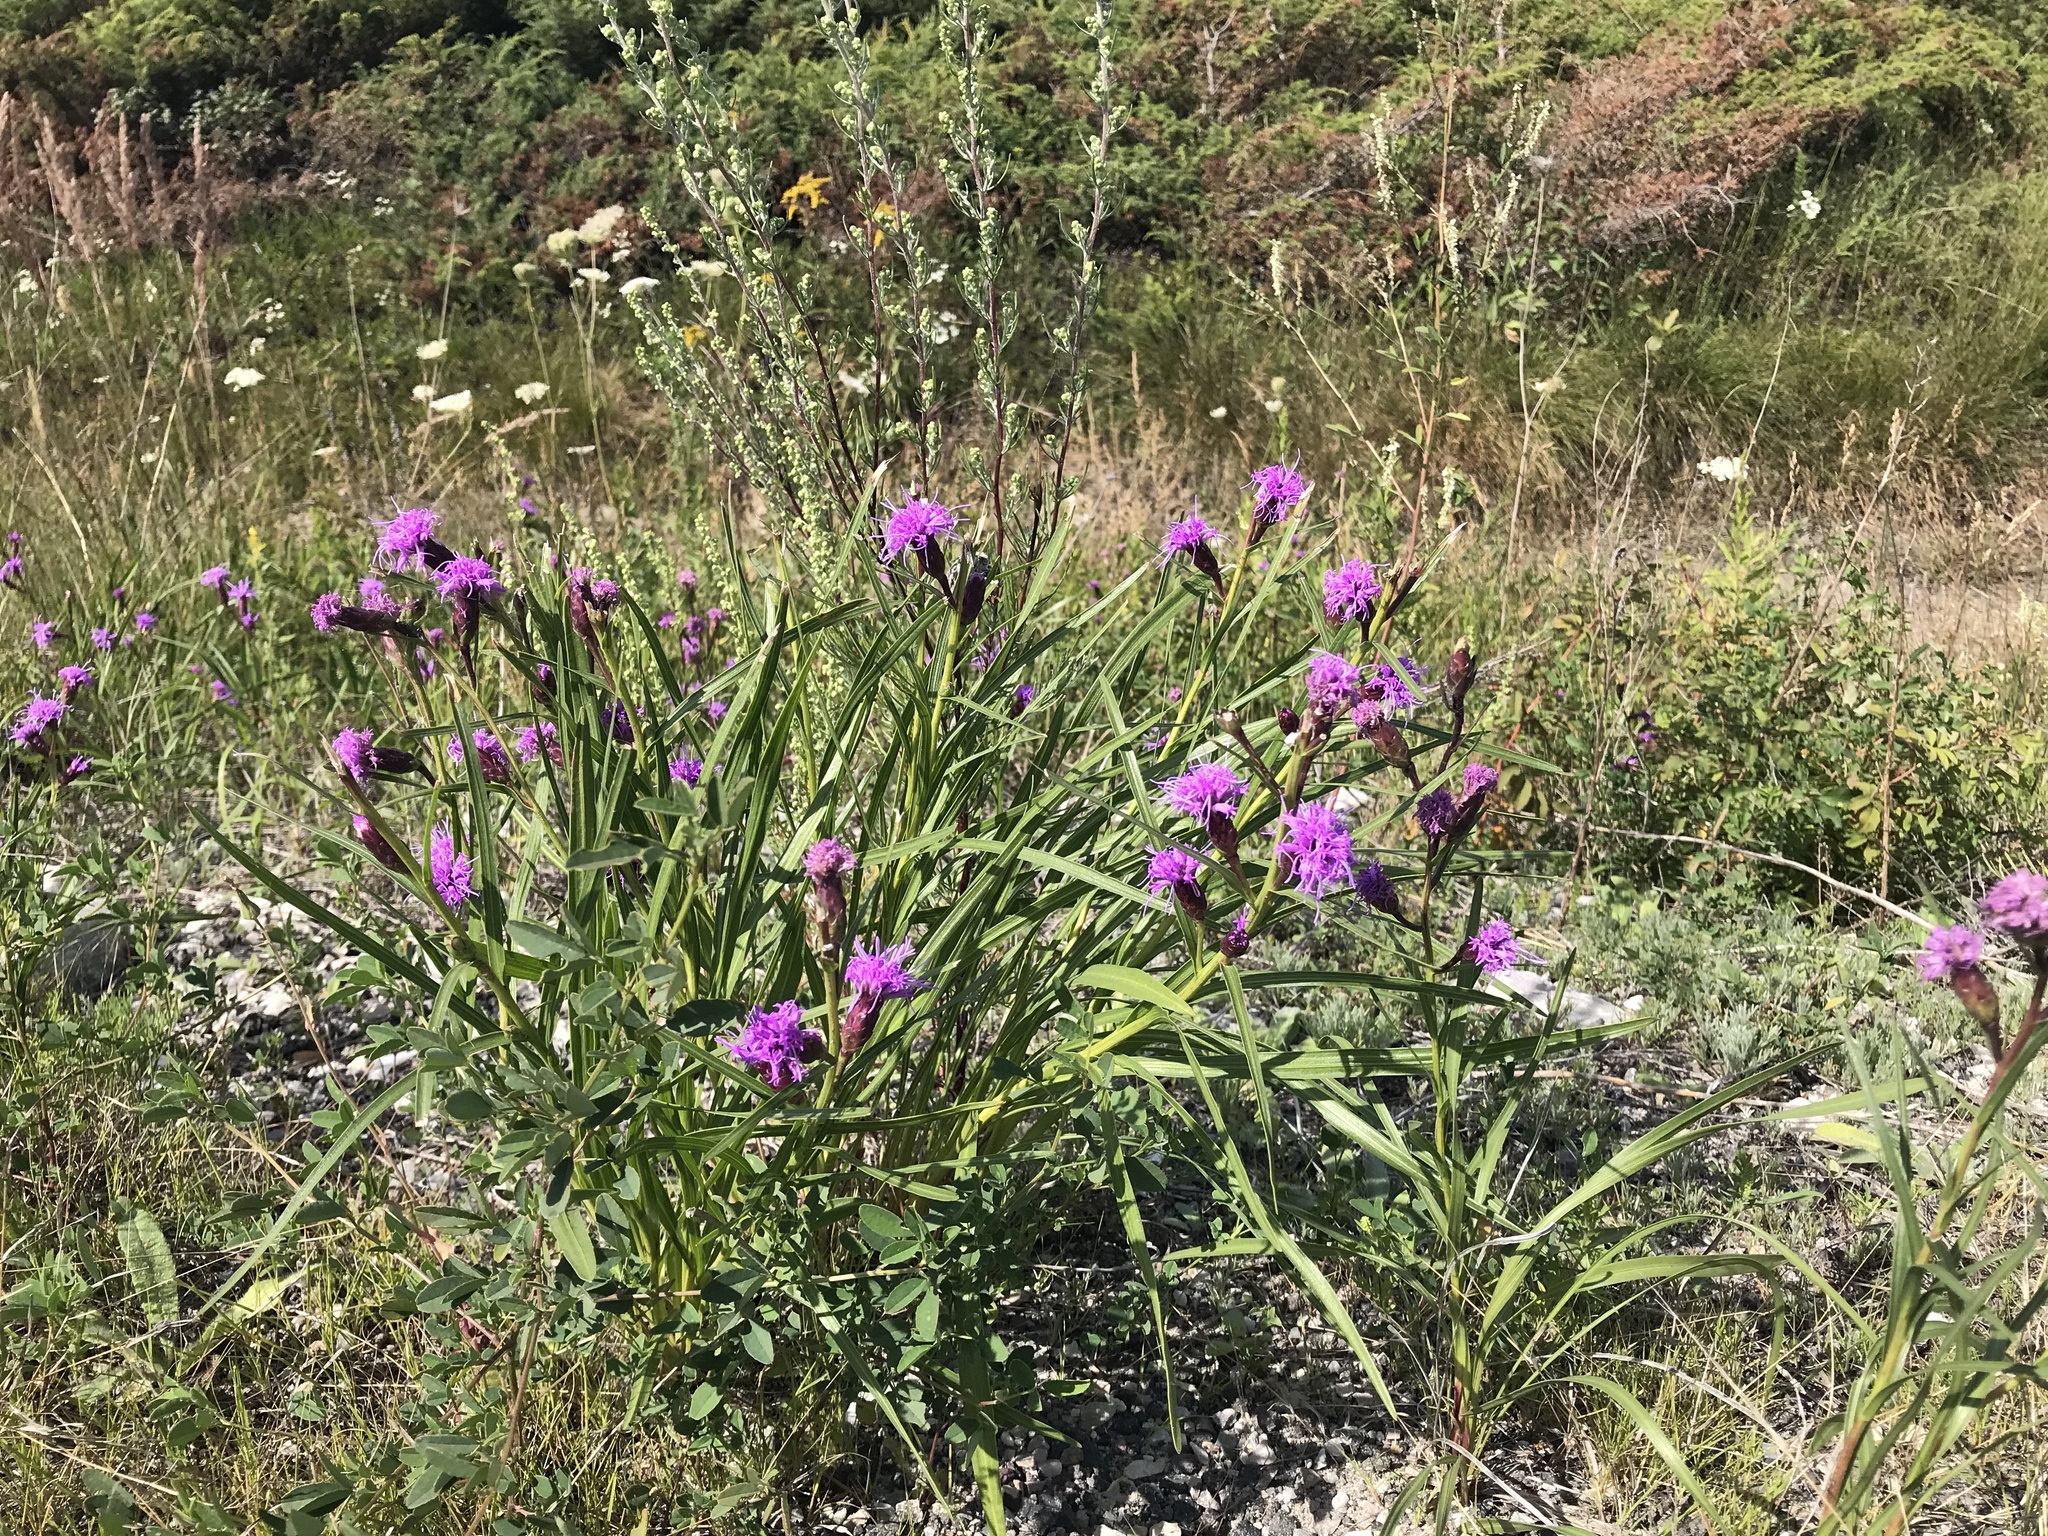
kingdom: Plantae
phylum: Tracheophyta
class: Magnoliopsida
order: Asterales
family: Asteraceae
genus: Liatris
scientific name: Liatris cylindracea
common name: Few-head blazingstar
